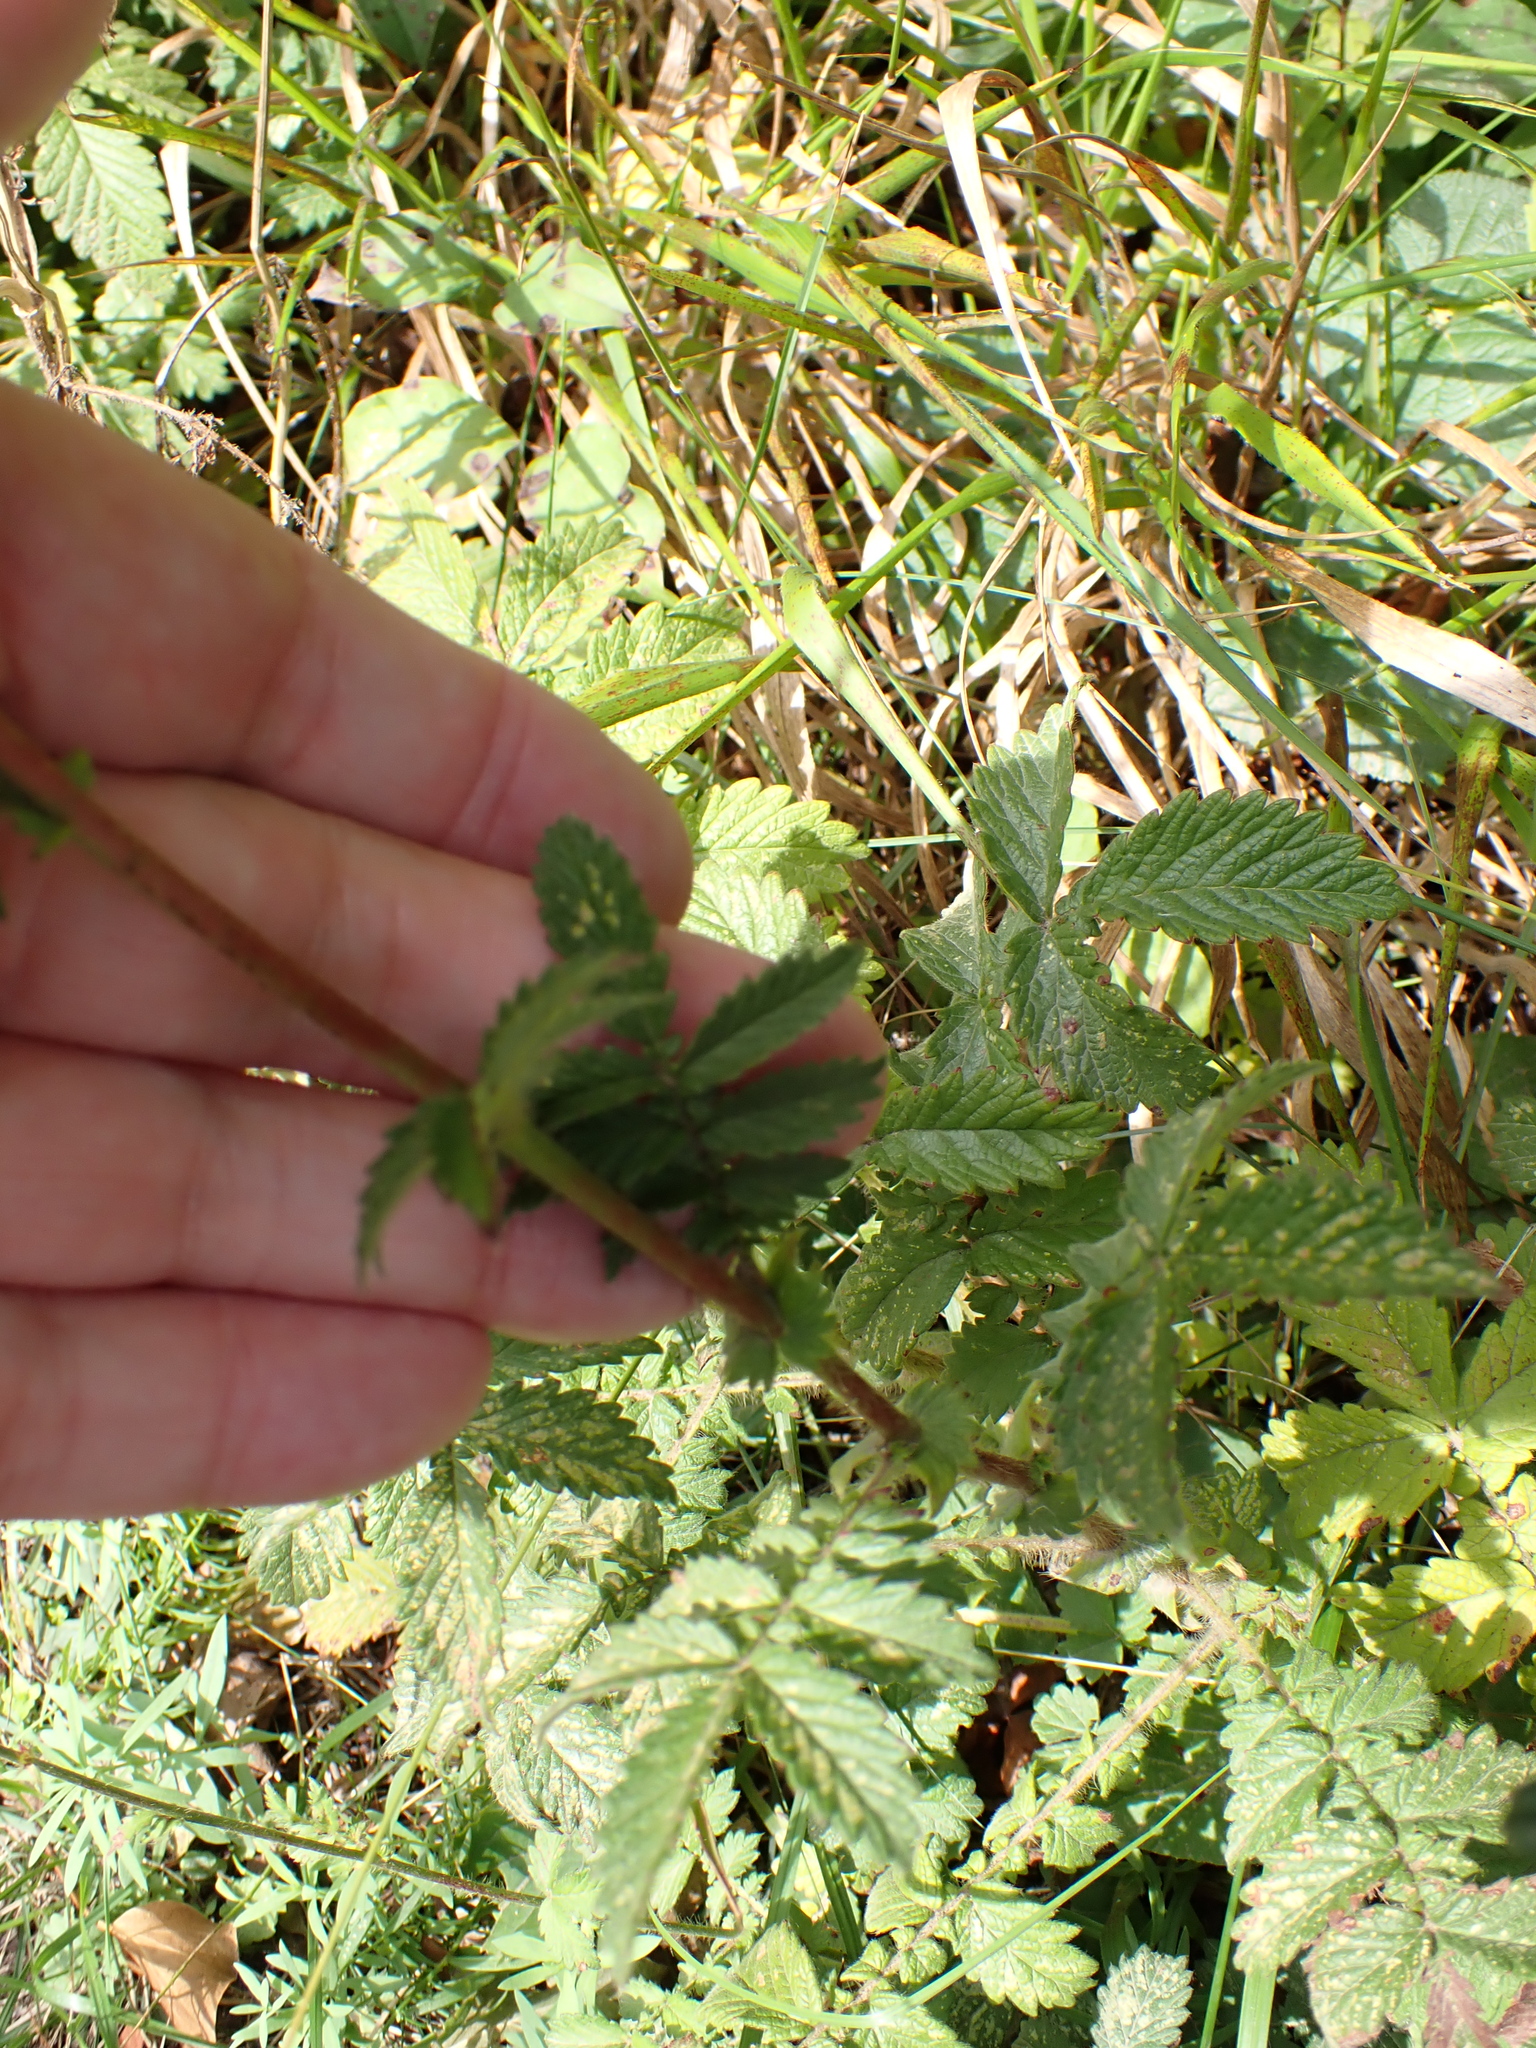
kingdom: Plantae
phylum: Tracheophyta
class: Magnoliopsida
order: Rosales
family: Rosaceae
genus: Agrimonia
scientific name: Agrimonia eupatoria
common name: Agrimony
